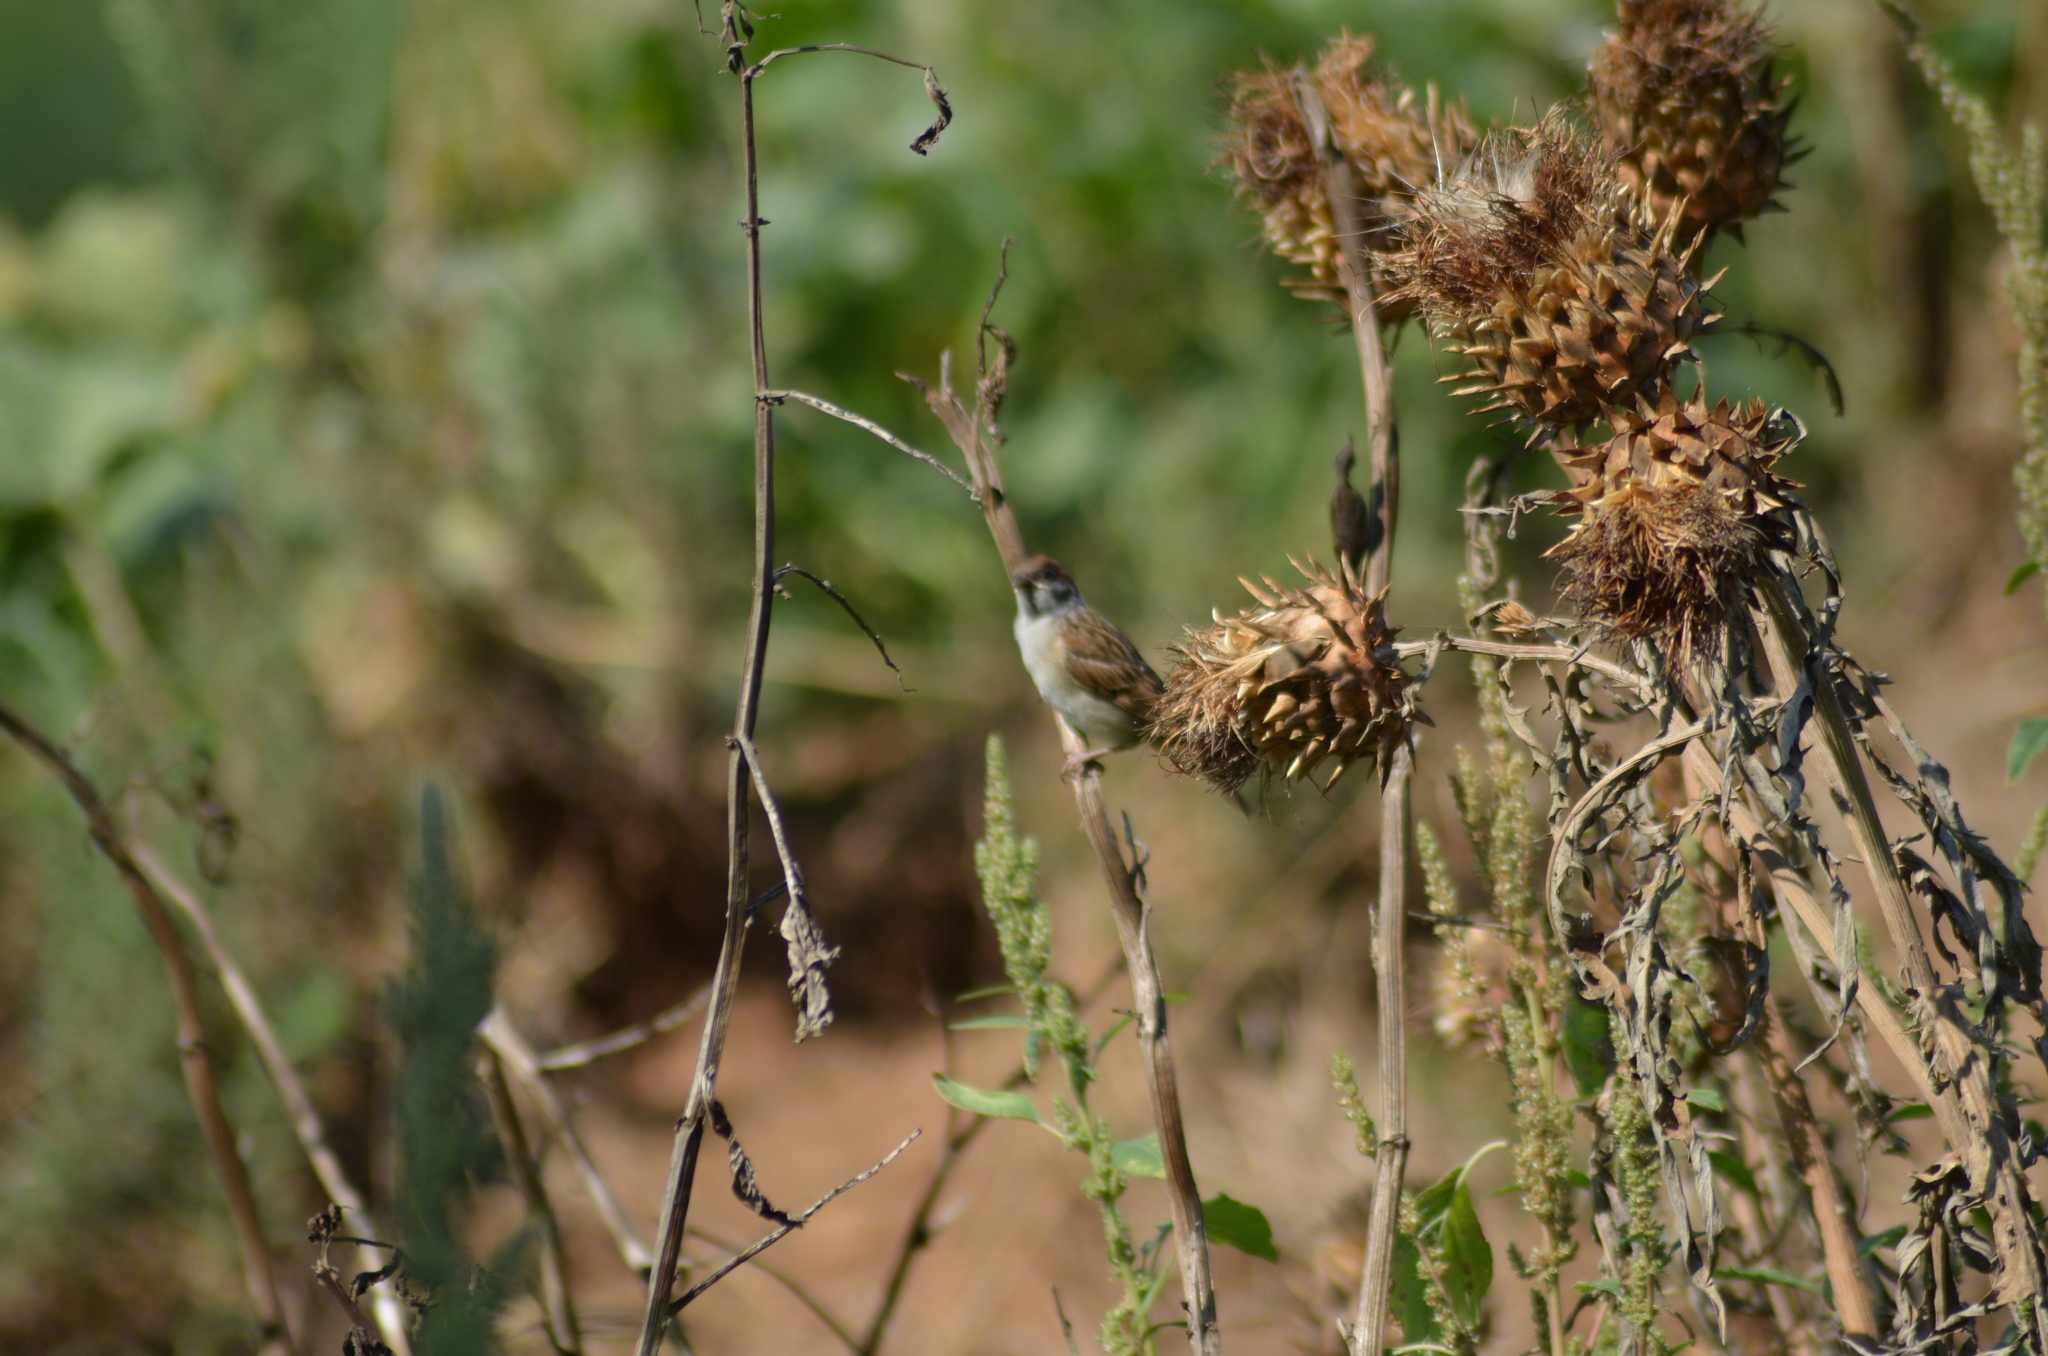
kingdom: Animalia
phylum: Chordata
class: Aves
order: Passeriformes
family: Passeridae
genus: Passer
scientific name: Passer montanus
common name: Eurasian tree sparrow
